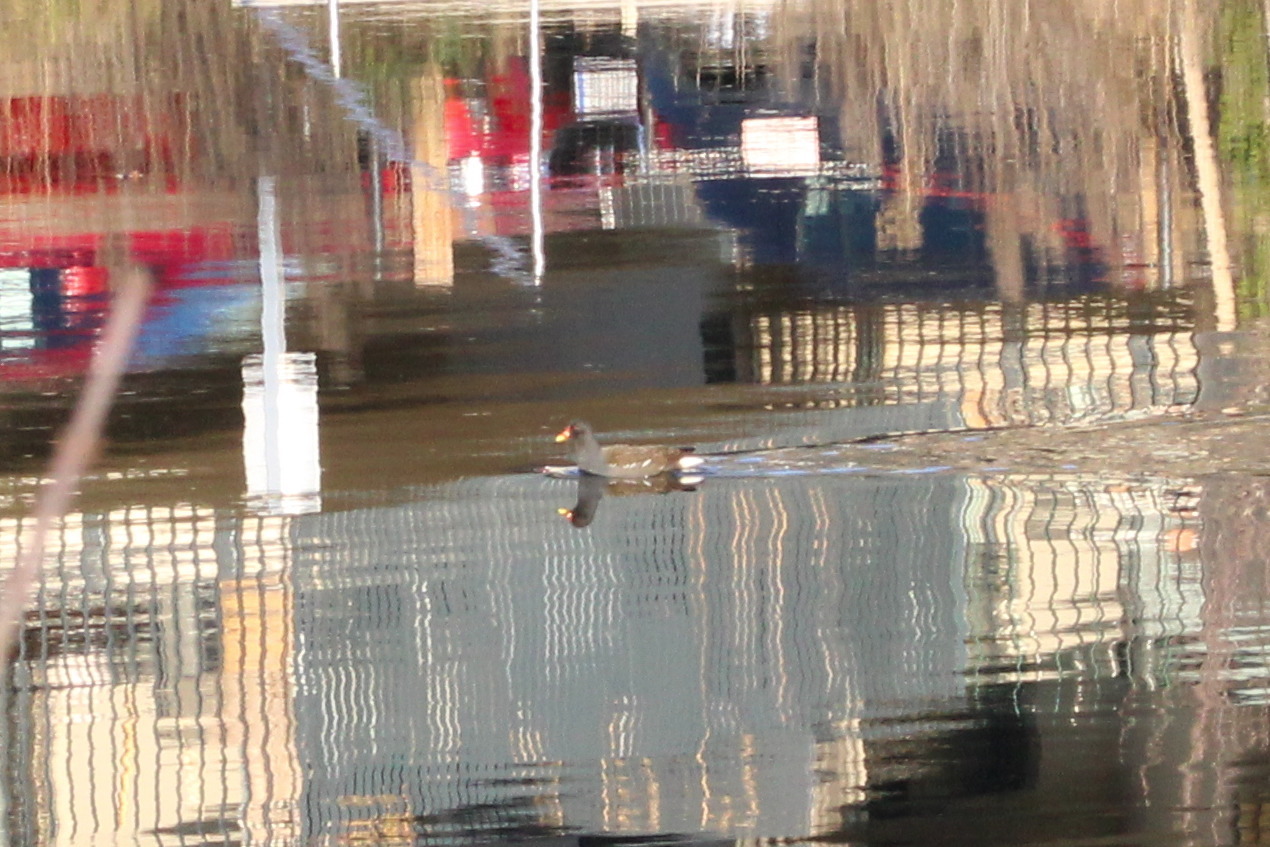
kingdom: Animalia
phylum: Chordata
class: Aves
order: Gruiformes
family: Rallidae
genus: Gallinula
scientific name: Gallinula chloropus
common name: Common moorhen
